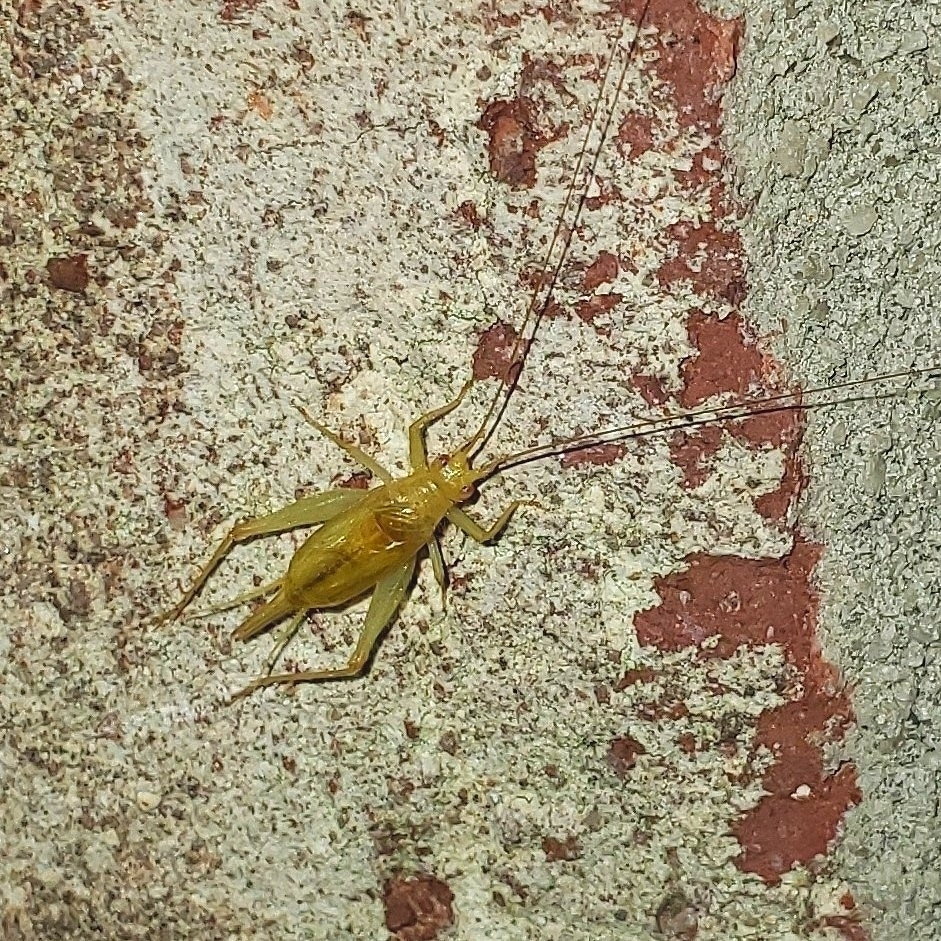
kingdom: Animalia
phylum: Arthropoda
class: Insecta
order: Orthoptera
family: Trigonidiidae
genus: Cyrtoxipha
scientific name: Cyrtoxipha columbiana
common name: Columbian trig
